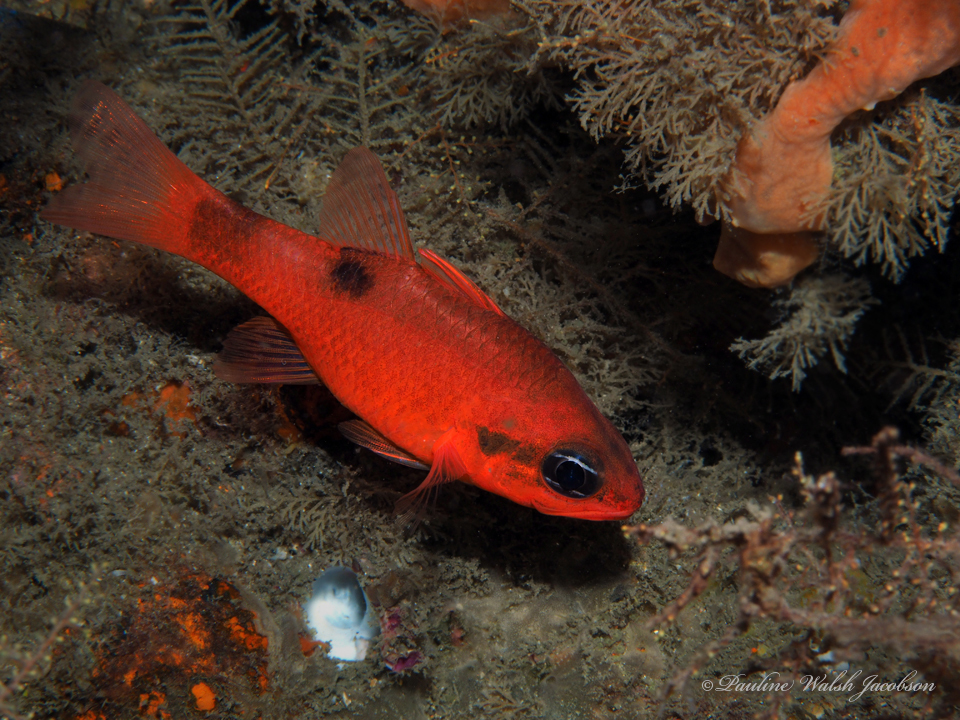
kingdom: Animalia
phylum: Chordata
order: Perciformes
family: Apogonidae
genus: Apogon
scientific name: Apogon maculatus
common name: Flamefish
